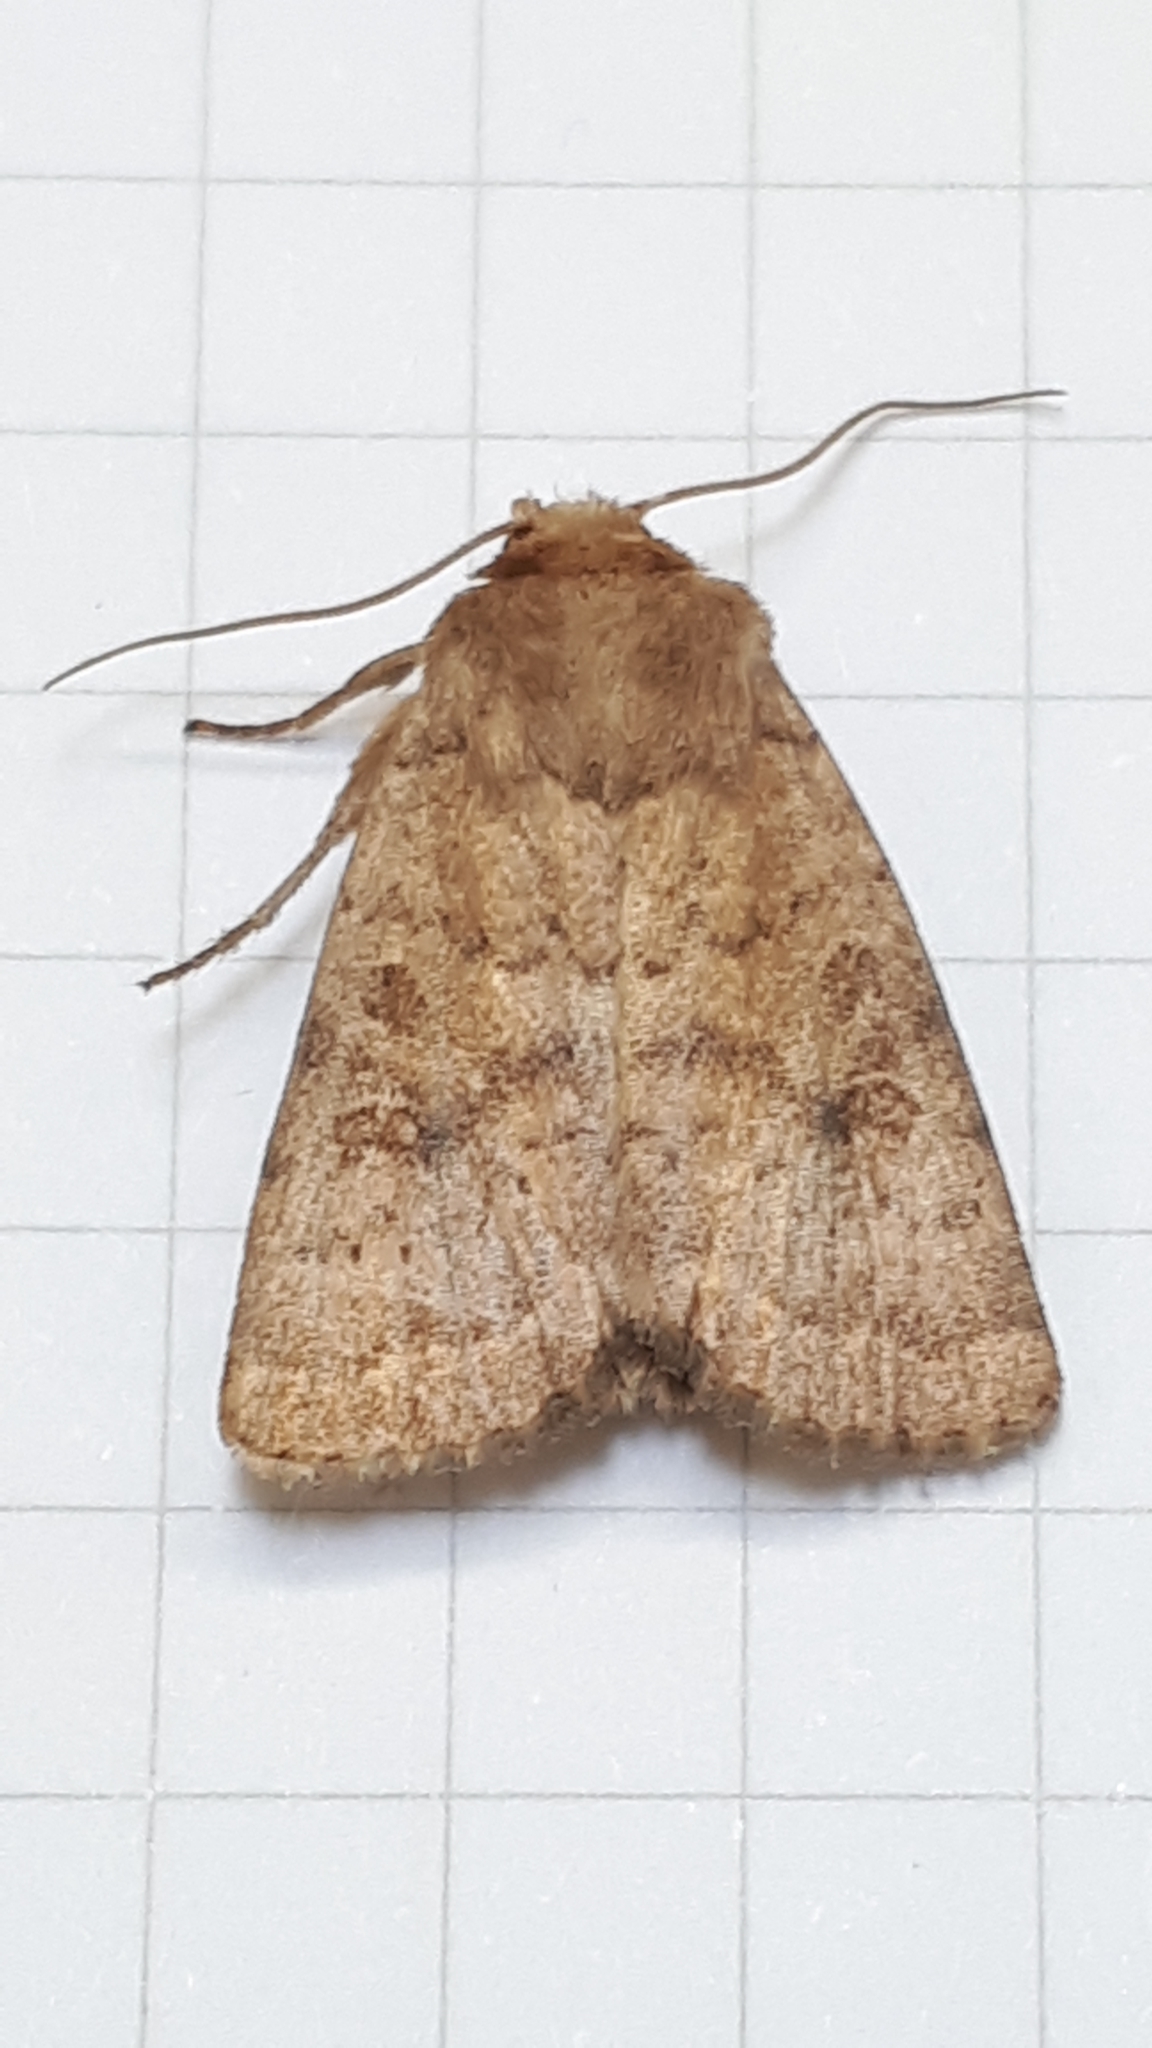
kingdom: Animalia
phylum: Arthropoda
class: Insecta
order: Lepidoptera
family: Noctuidae
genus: Hoplodrina
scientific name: Hoplodrina octogenaria
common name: Uncertain
